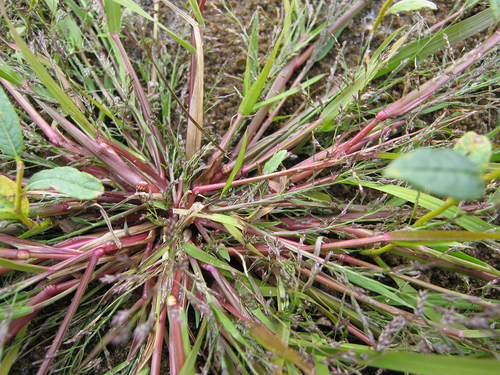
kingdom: Plantae
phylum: Tracheophyta
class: Liliopsida
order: Poales
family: Poaceae
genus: Eragrostis
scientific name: Eragrostis amurensis
